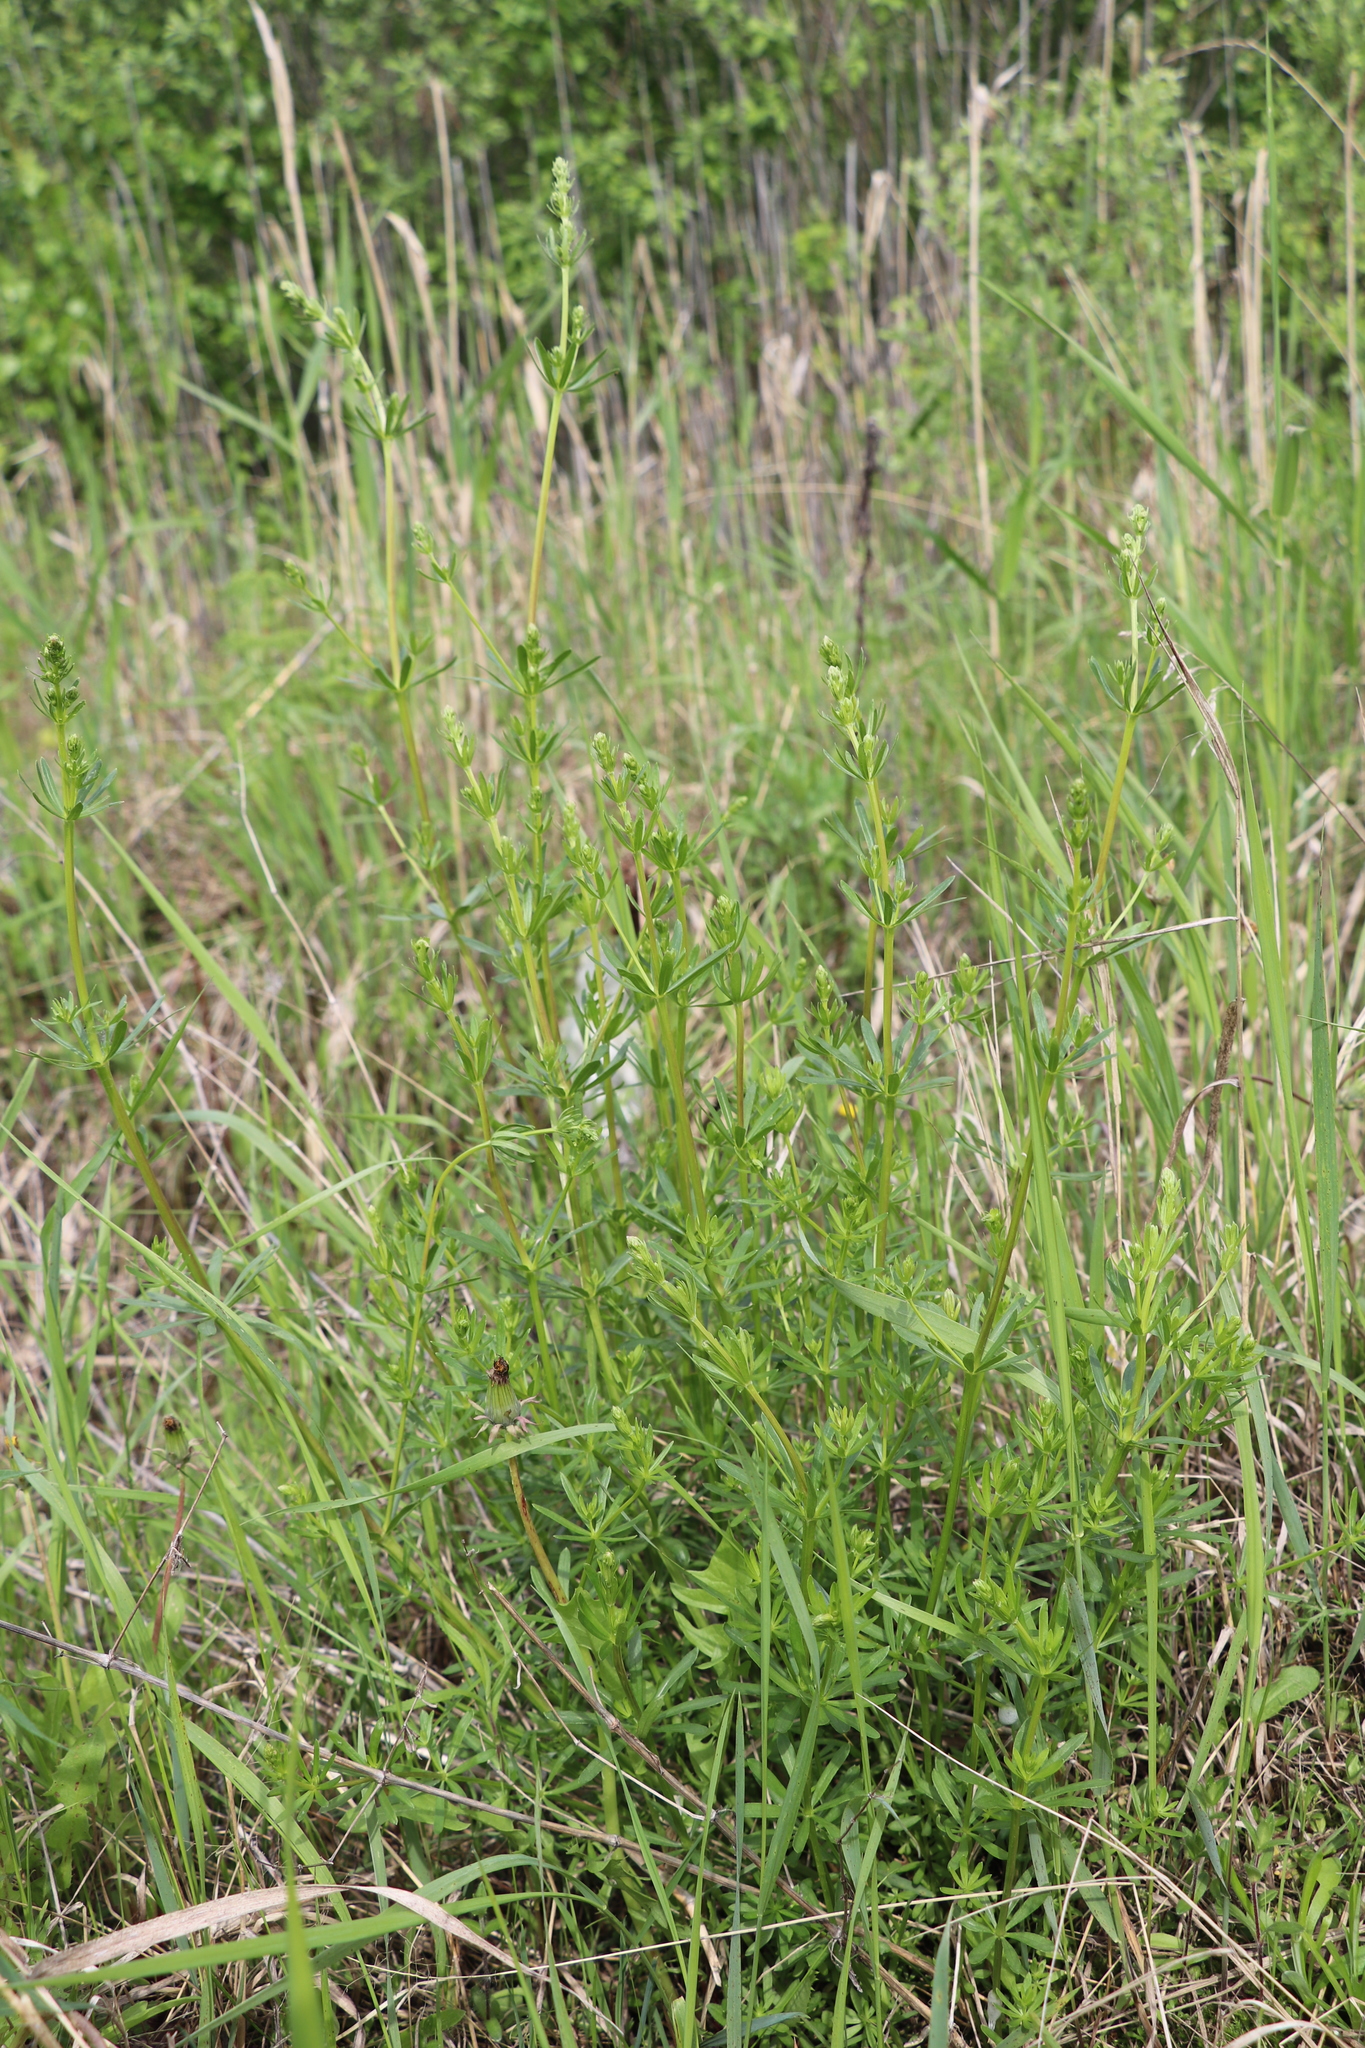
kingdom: Plantae
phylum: Tracheophyta
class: Magnoliopsida
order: Gentianales
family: Rubiaceae
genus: Galium
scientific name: Galium mollugo
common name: Hedge bedstraw
